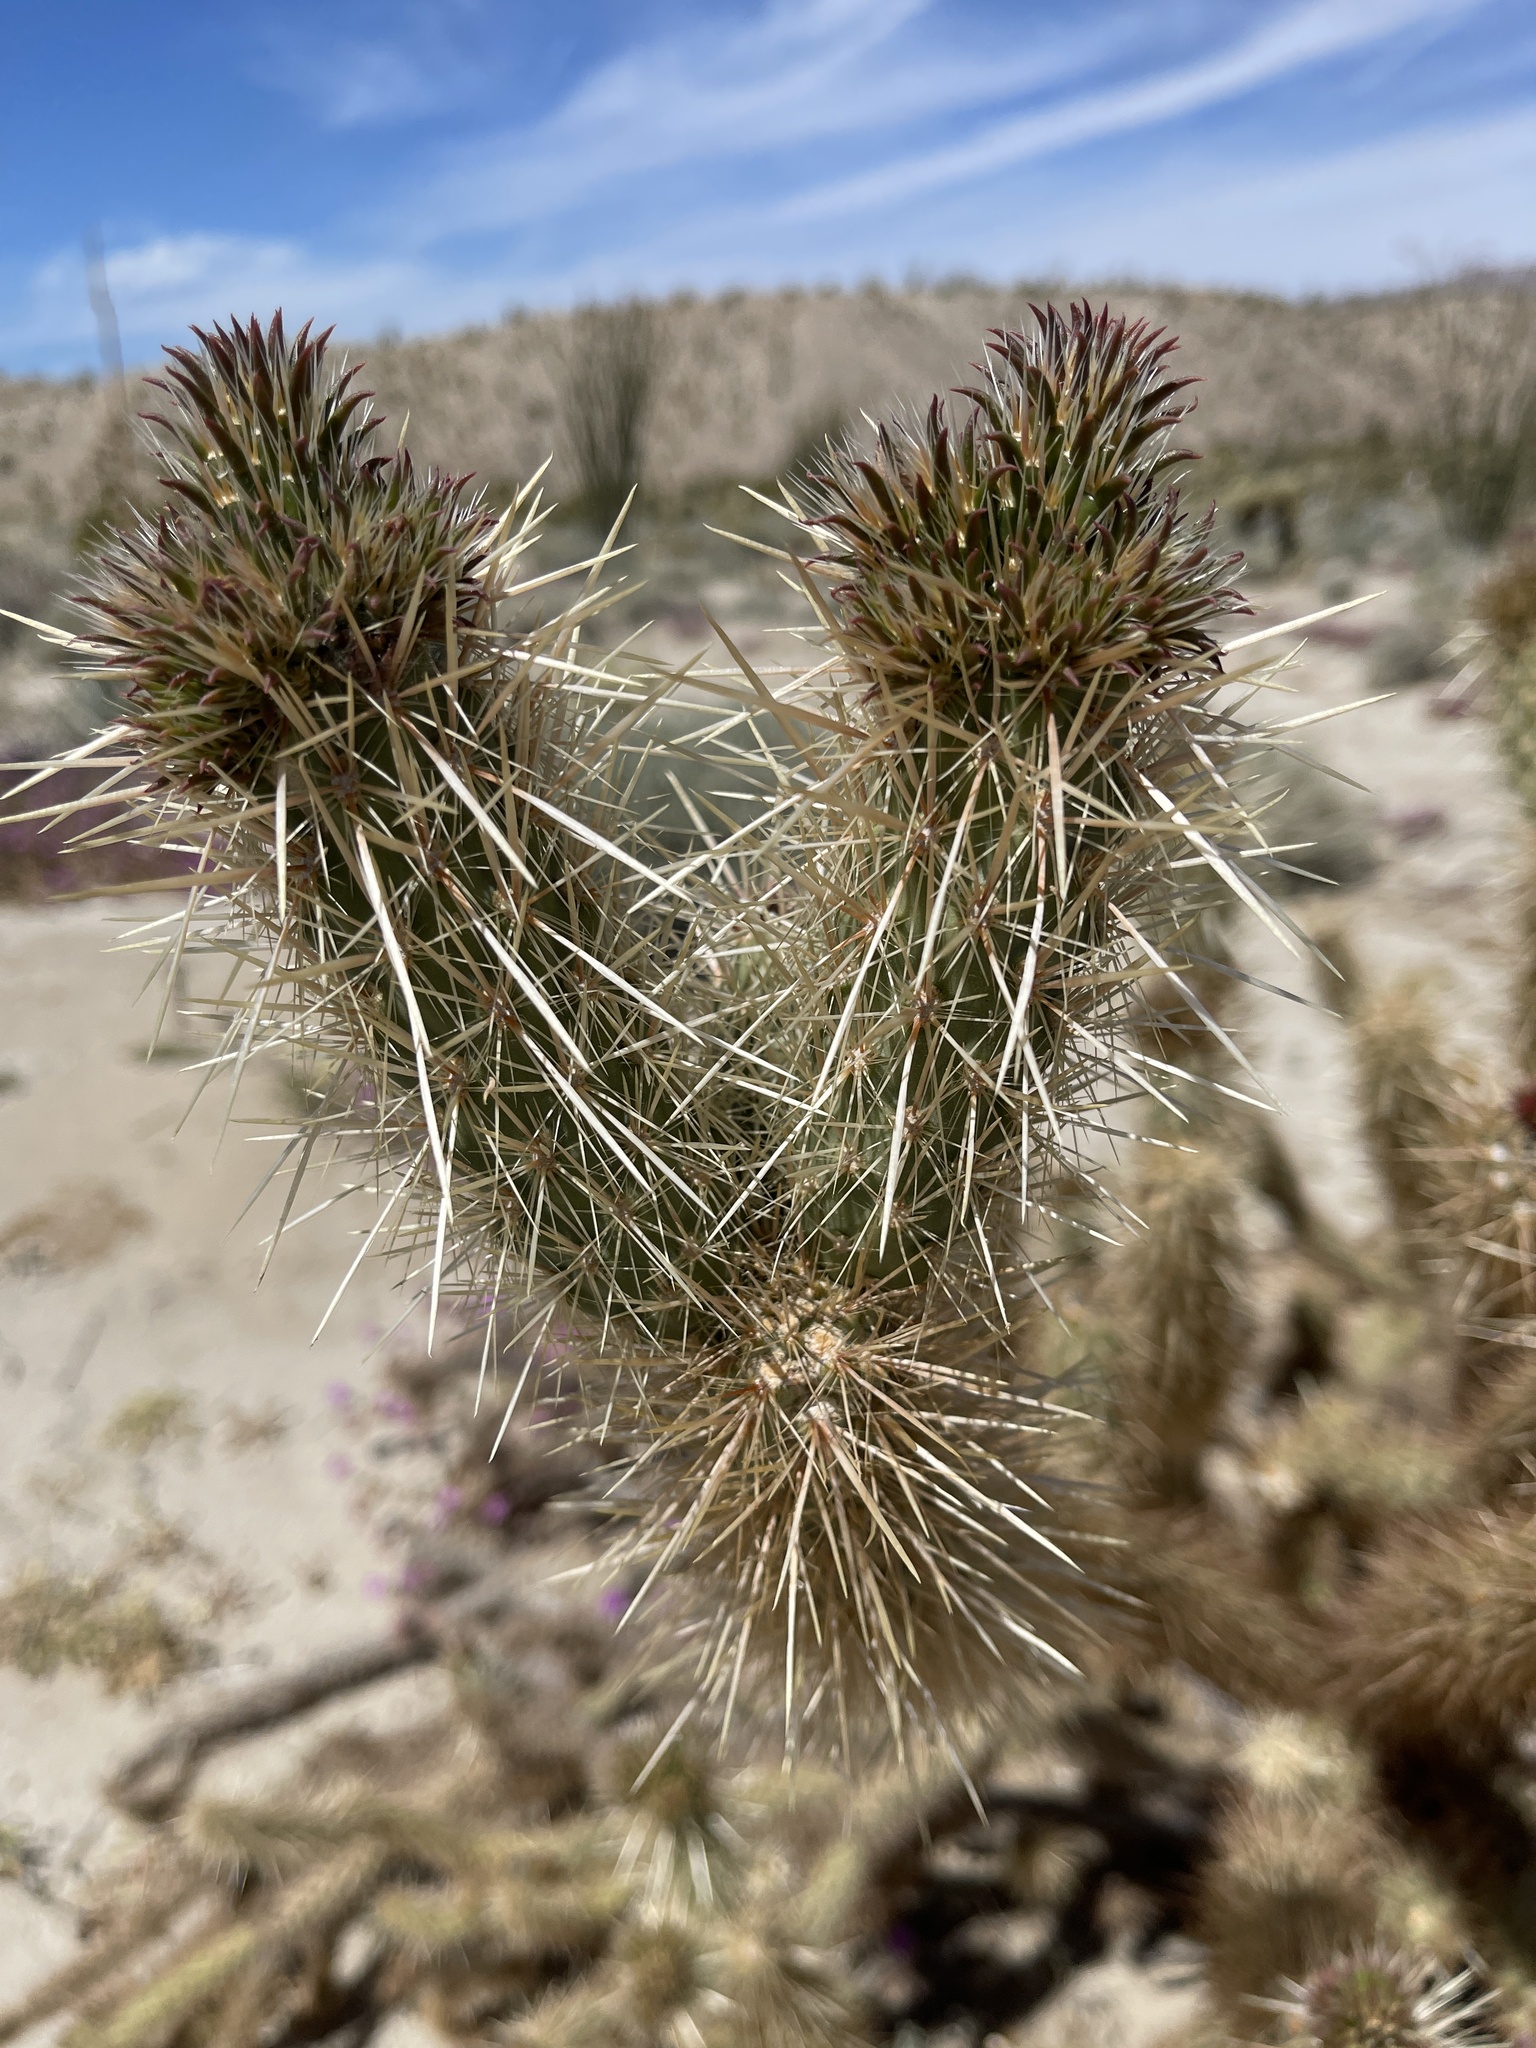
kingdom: Plantae
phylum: Tracheophyta
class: Magnoliopsida
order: Caryophyllales
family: Cactaceae
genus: Cylindropuntia
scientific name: Cylindropuntia ganderi
